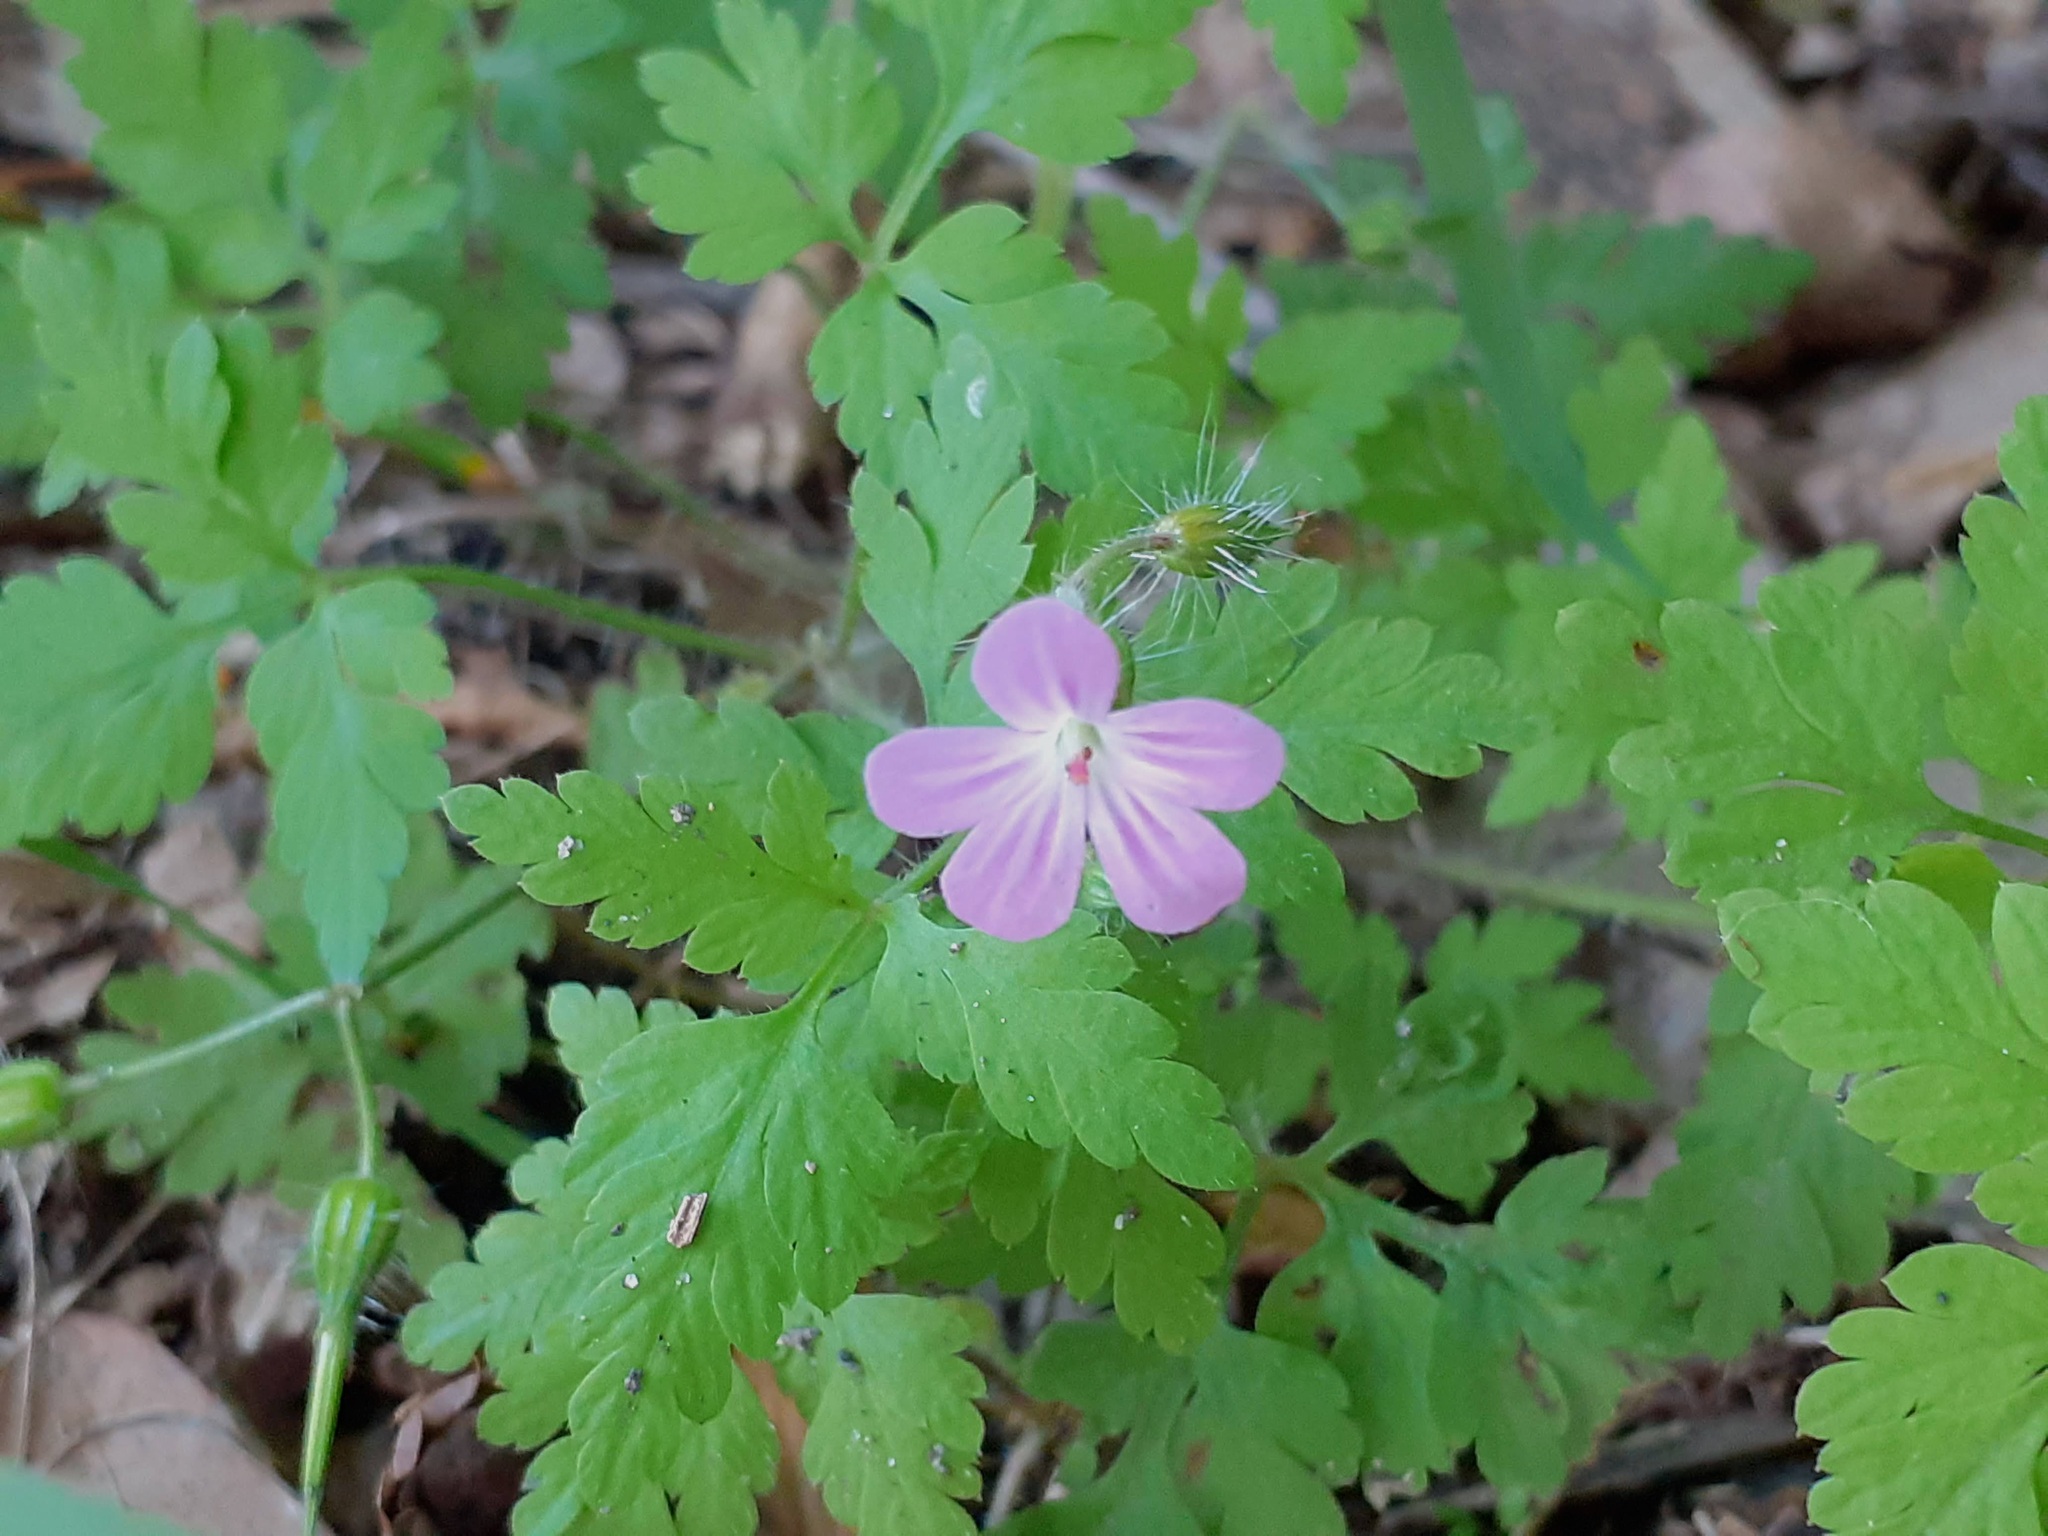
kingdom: Plantae
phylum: Tracheophyta
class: Magnoliopsida
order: Geraniales
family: Geraniaceae
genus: Geranium
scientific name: Geranium robertianum
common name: Herb-robert
